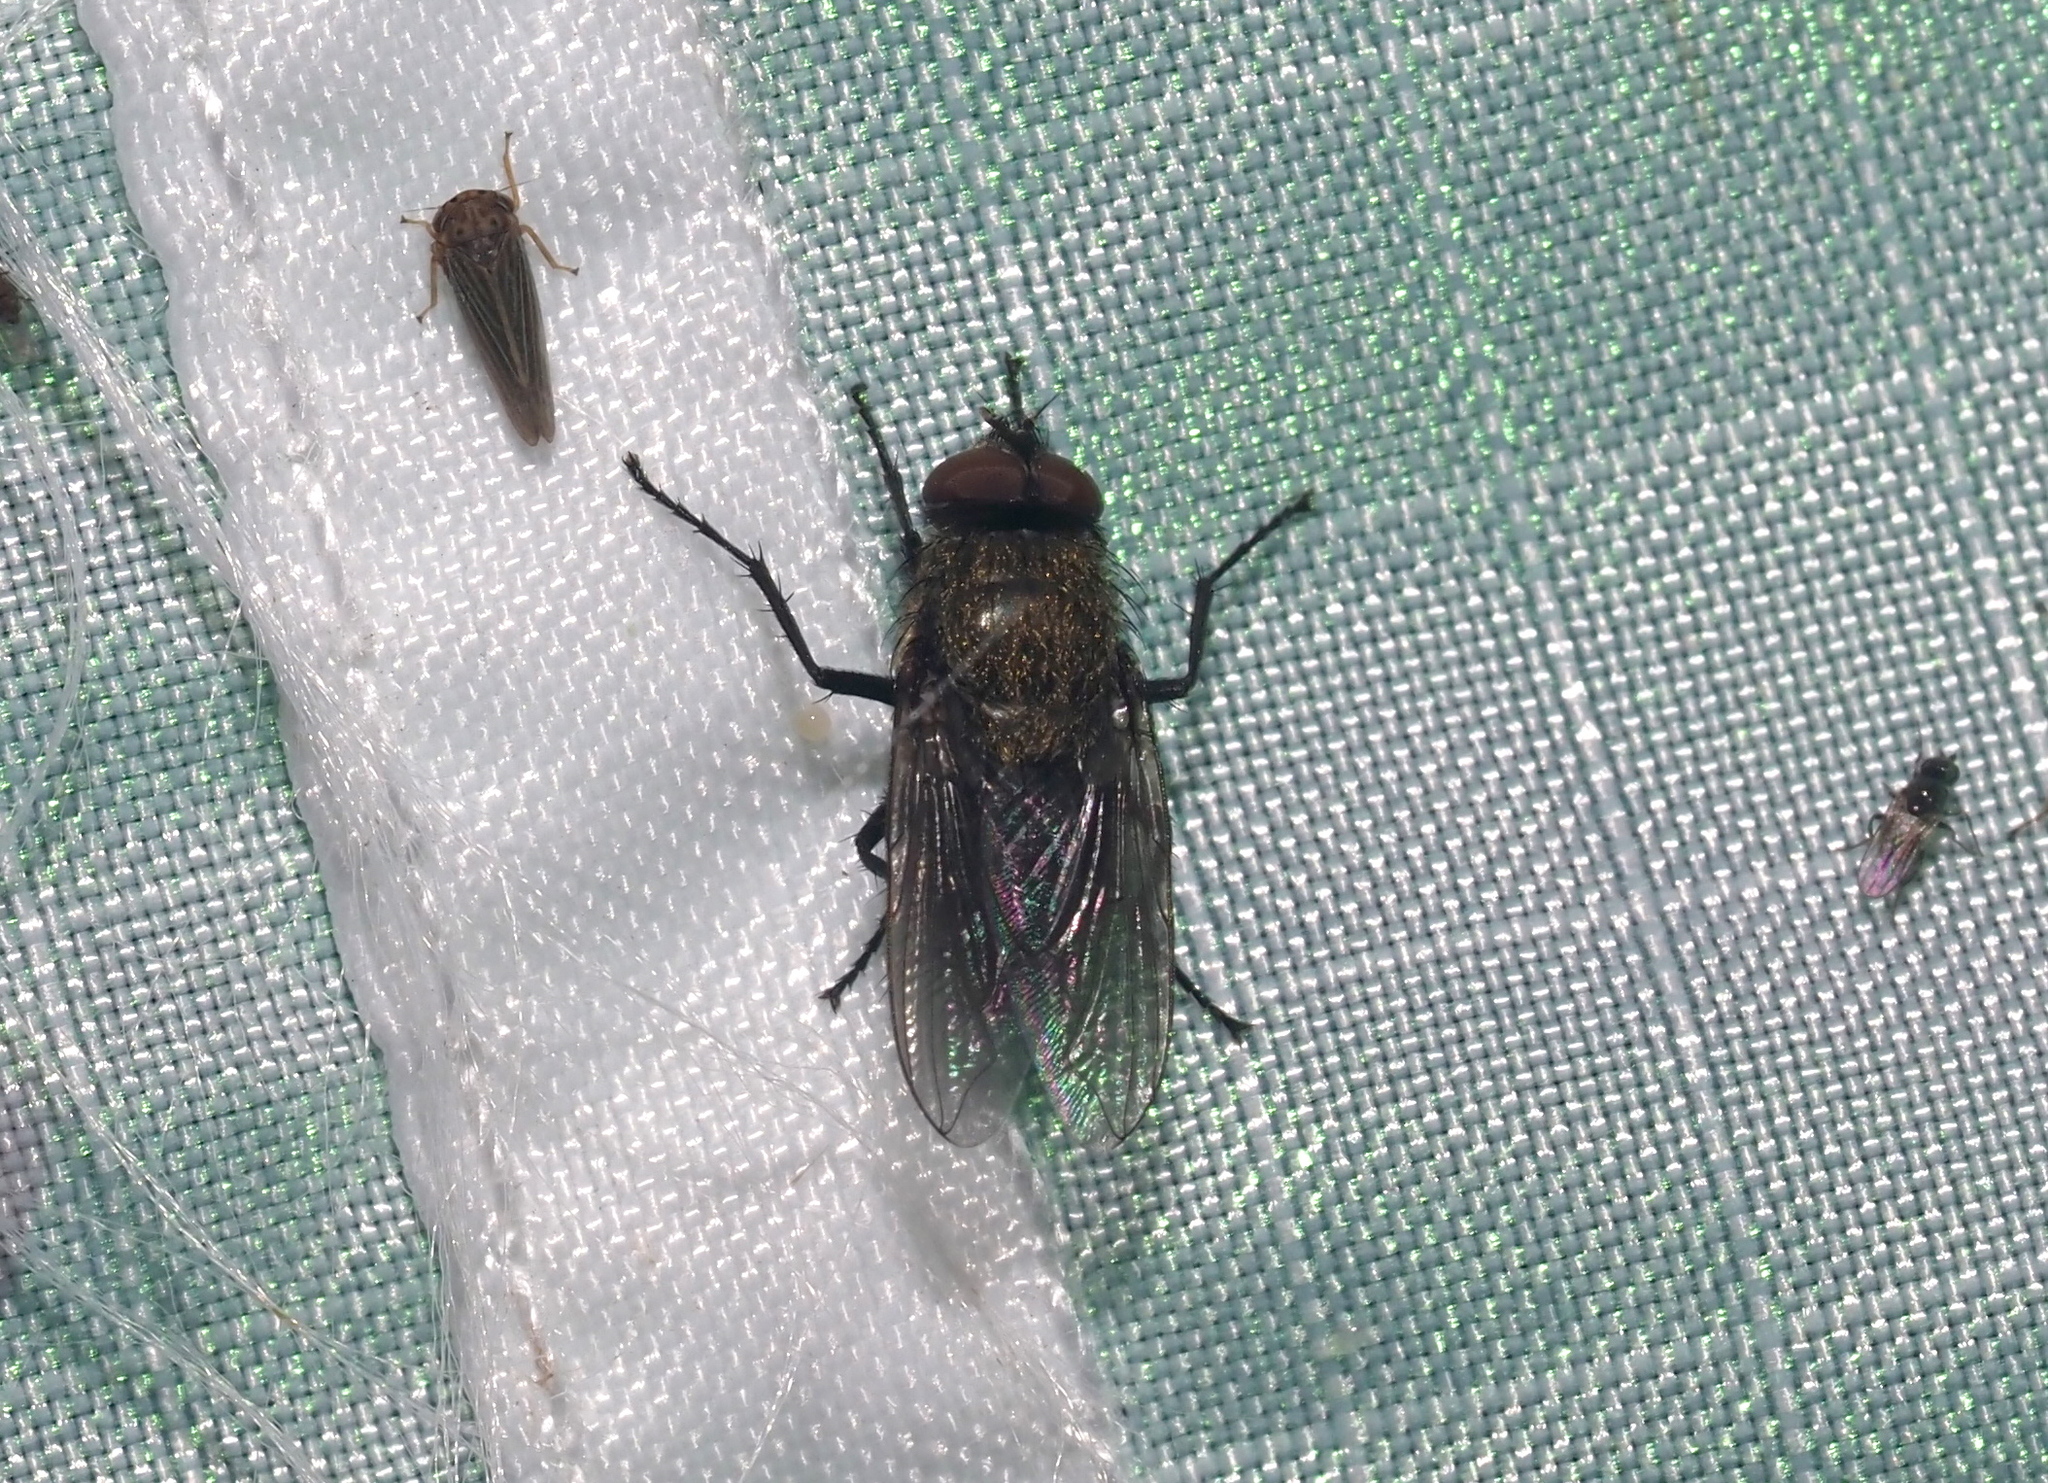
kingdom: Animalia
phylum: Arthropoda
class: Insecta
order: Diptera
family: Polleniidae
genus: Pollenia
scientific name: Pollenia
